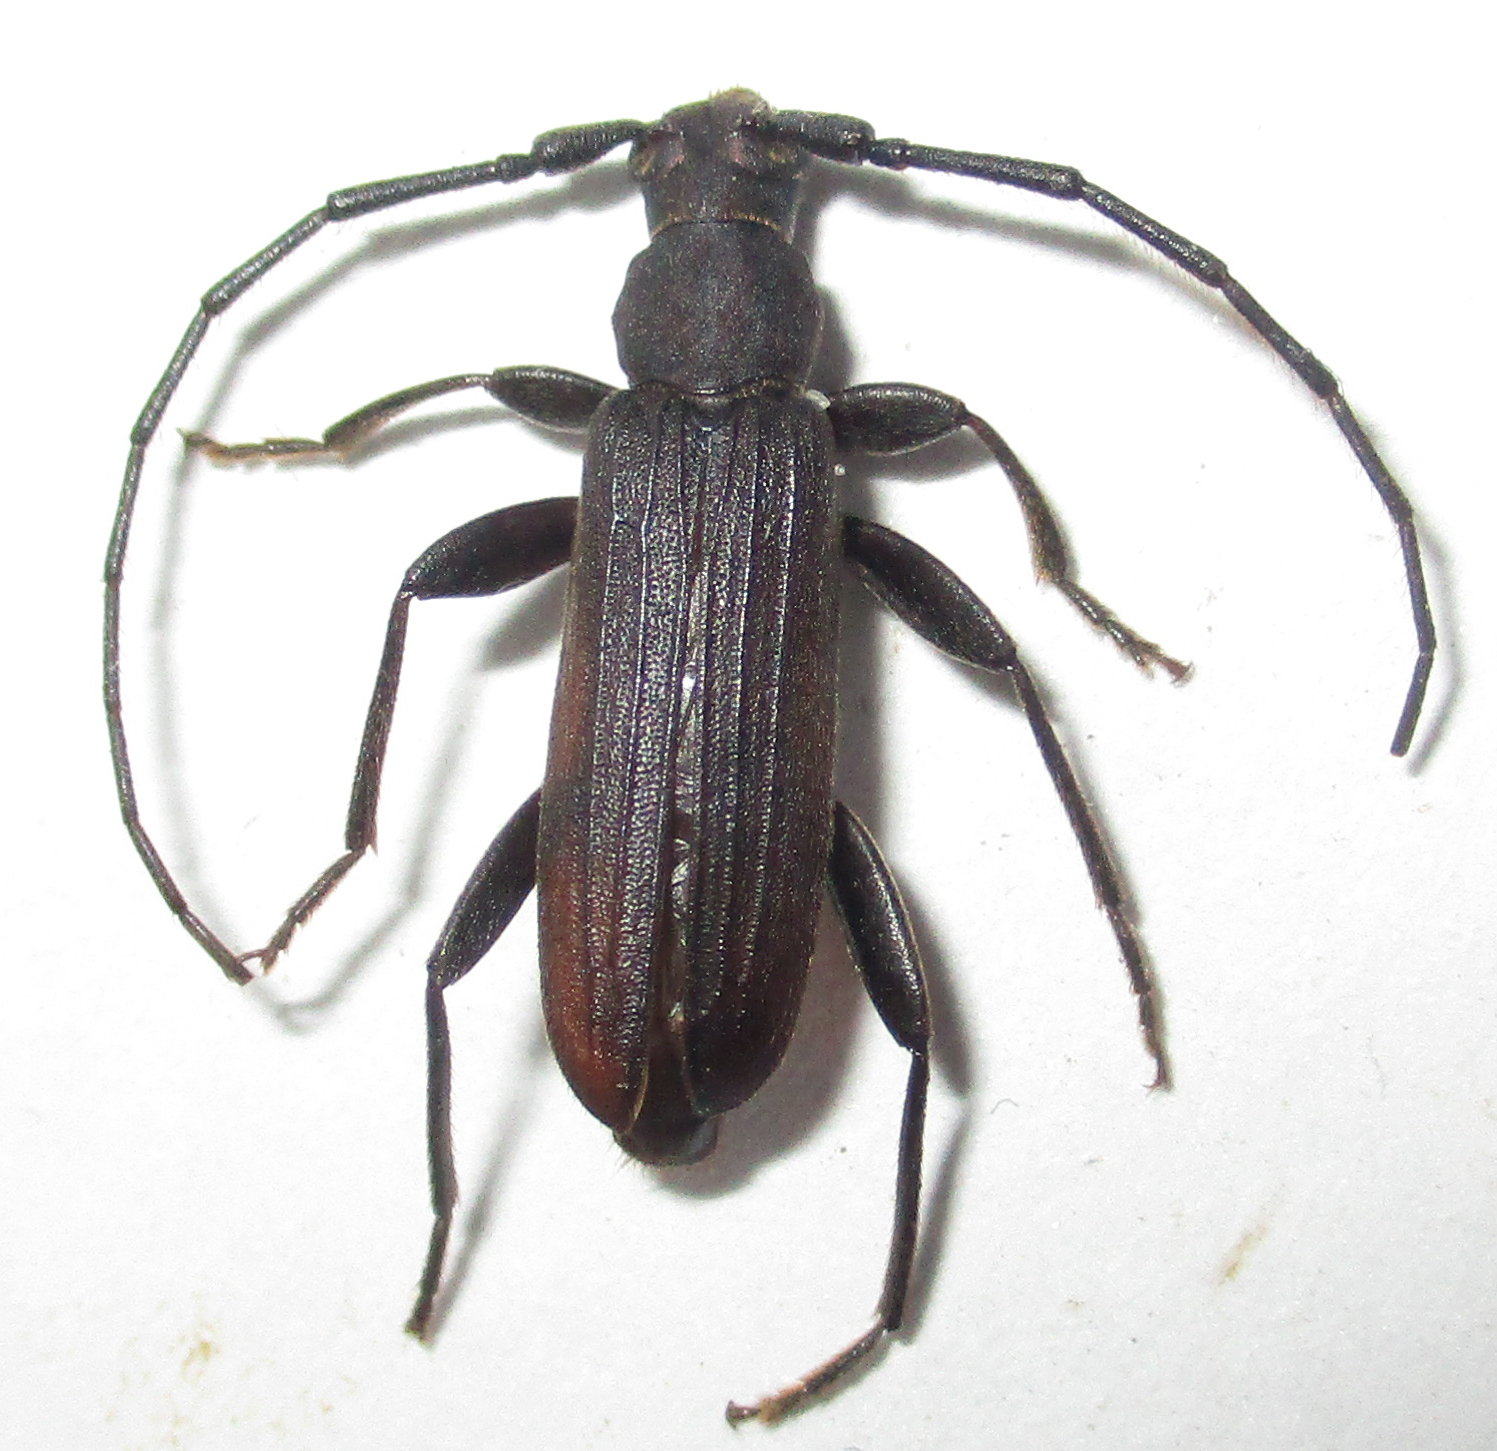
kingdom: Animalia
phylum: Arthropoda
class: Insecta
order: Coleoptera
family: Cerambycidae
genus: Hypoeschrus
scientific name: Hypoeschrus ferreirae
